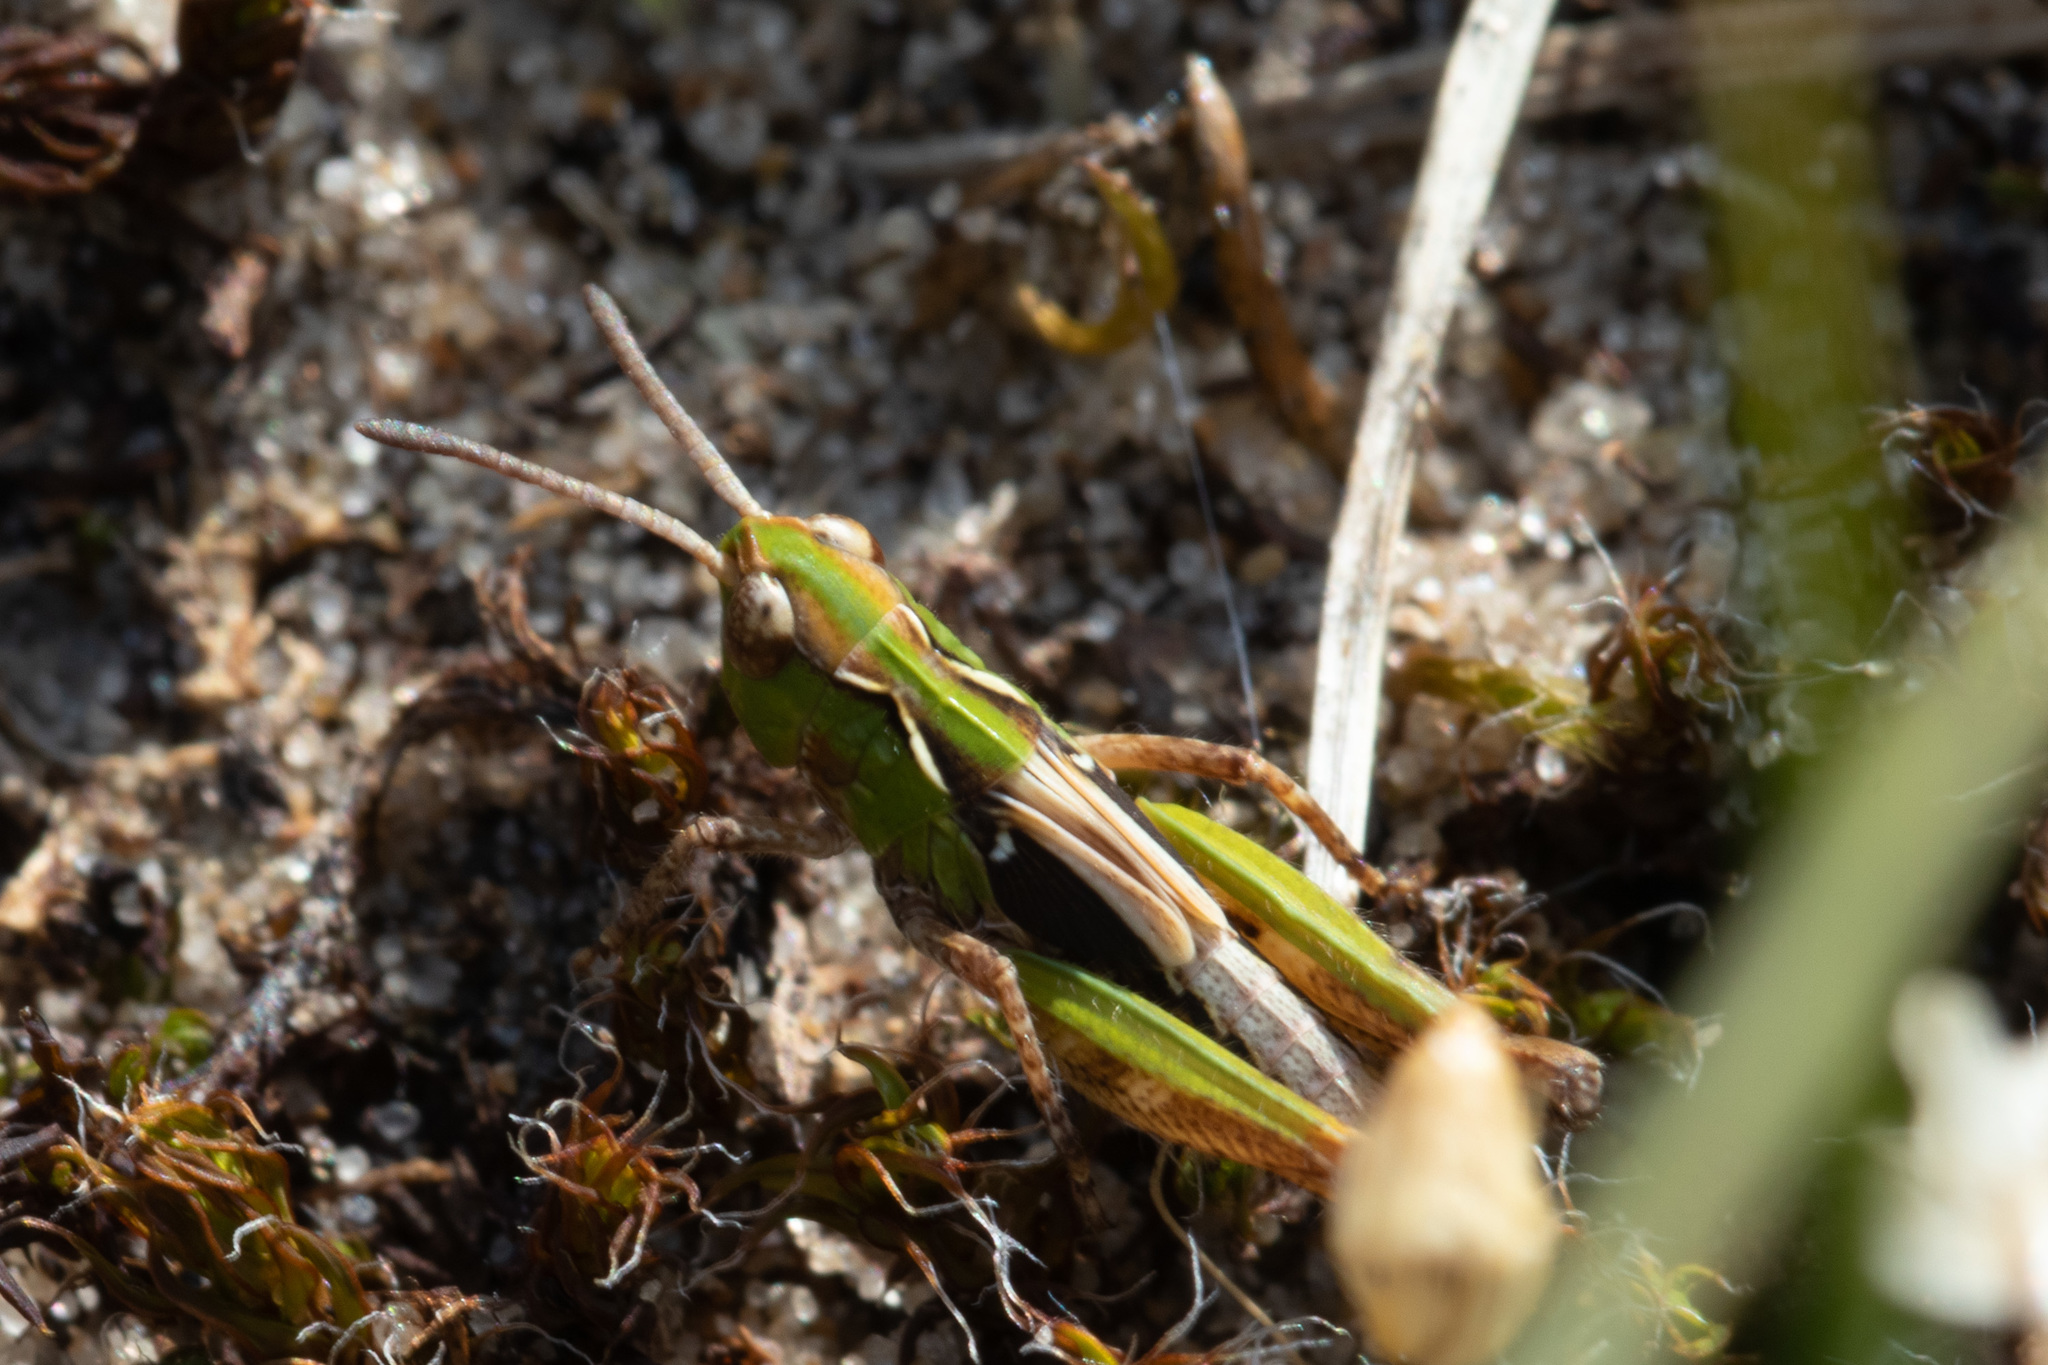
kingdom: Animalia
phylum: Arthropoda
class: Insecta
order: Orthoptera
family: Acrididae
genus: Myrmeleotettix
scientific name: Myrmeleotettix maculatus
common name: Mottled grasshopper
